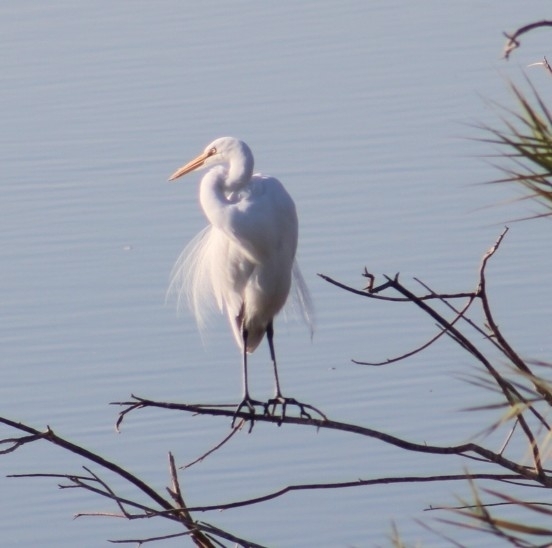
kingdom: Animalia
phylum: Chordata
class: Aves
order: Pelecaniformes
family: Ardeidae
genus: Ardea
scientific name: Ardea alba
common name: Great egret
